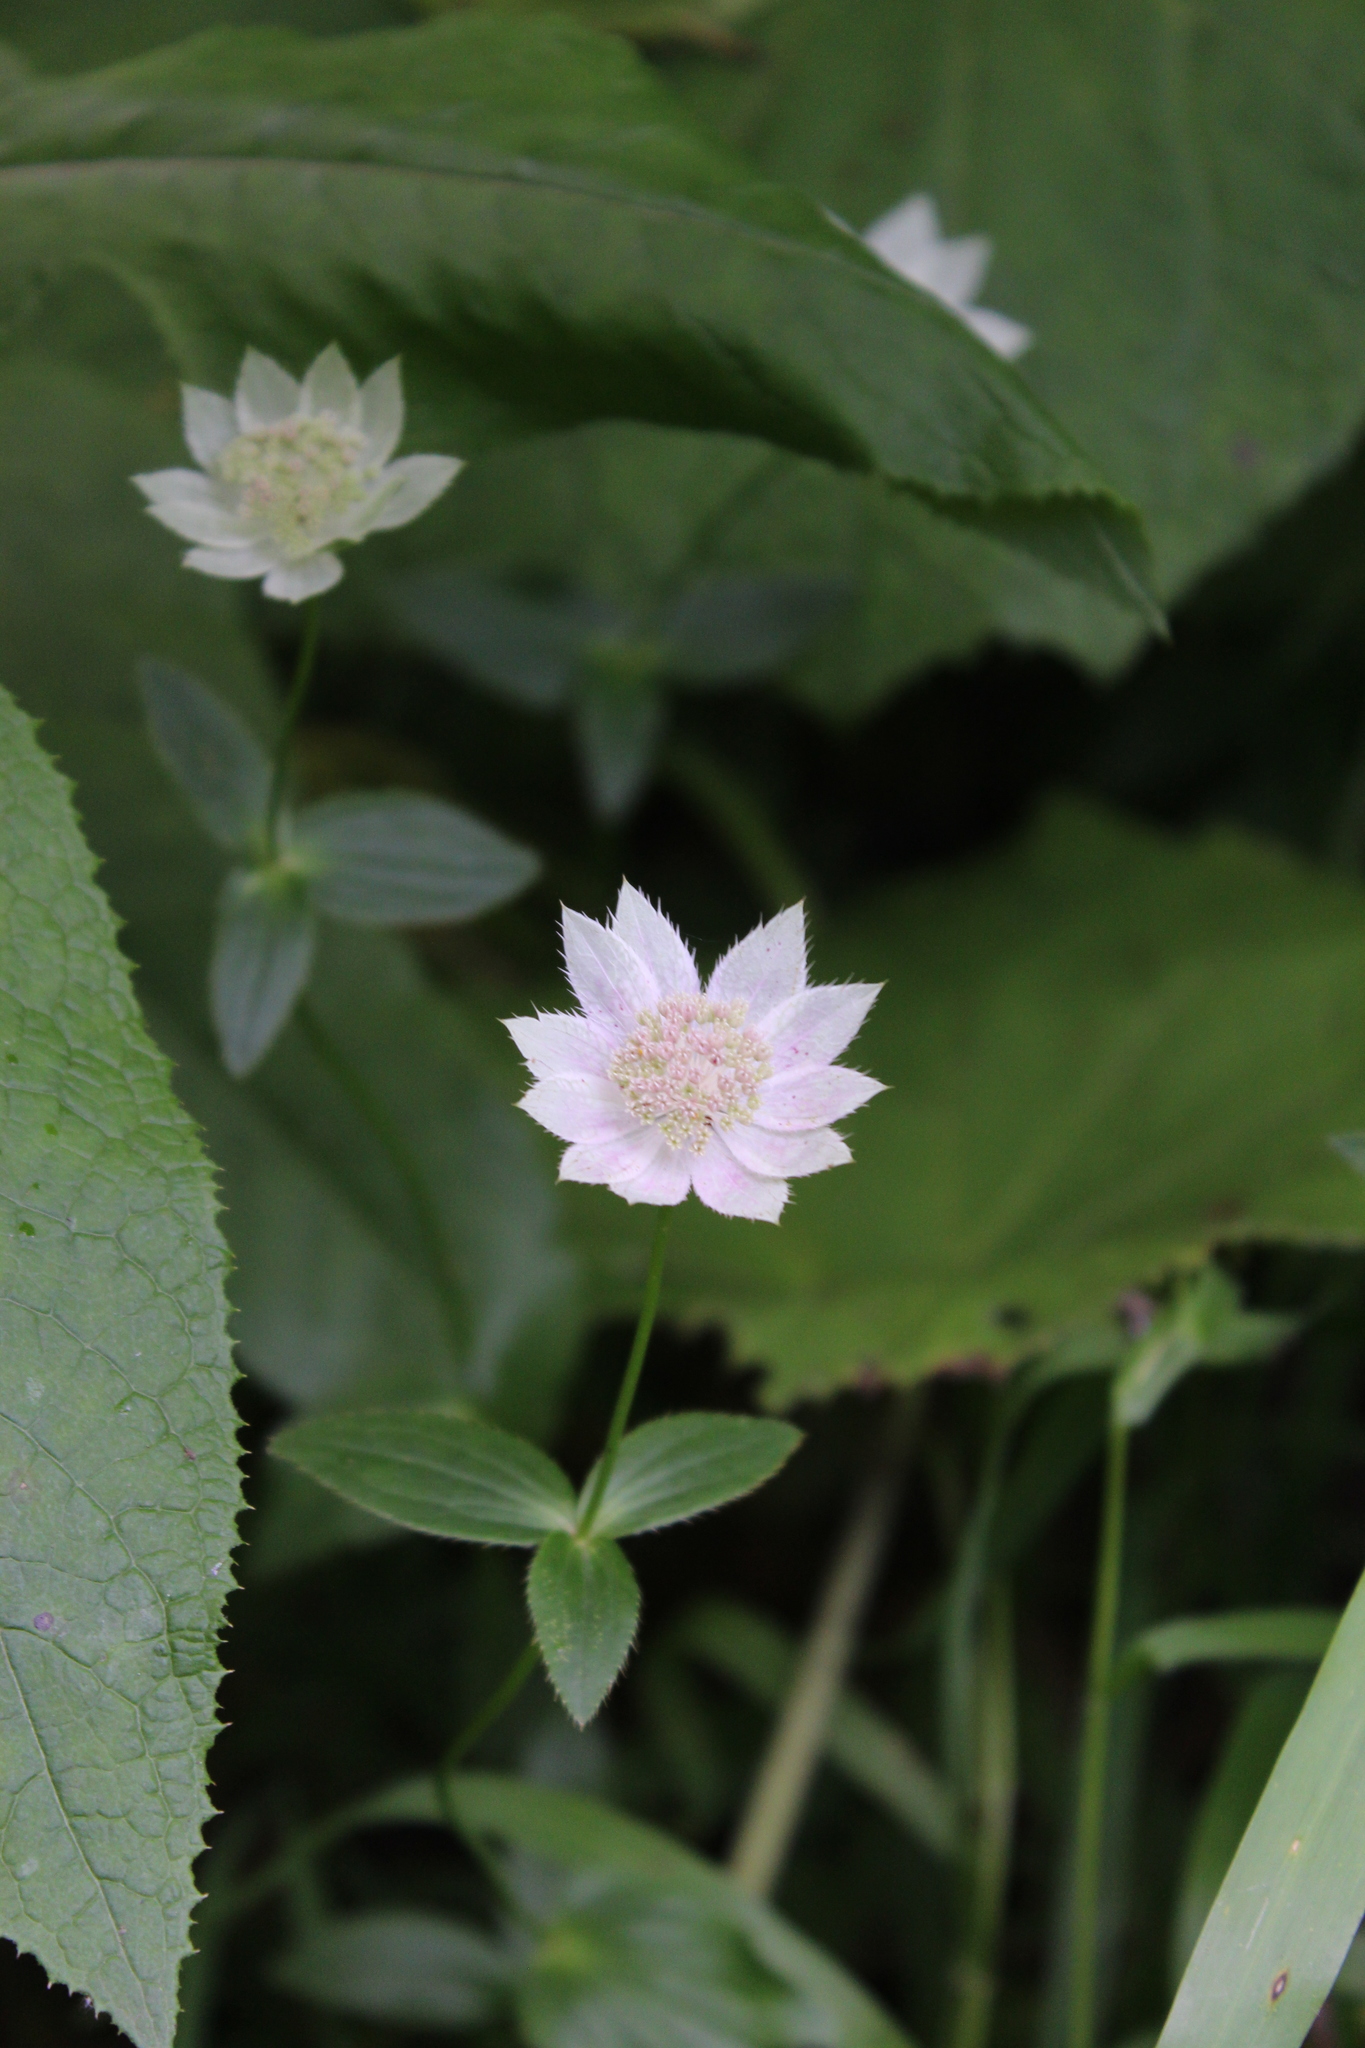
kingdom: Plantae
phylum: Tracheophyta
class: Magnoliopsida
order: Apiales
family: Apiaceae
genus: Astrantia
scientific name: Astrantia maxima
